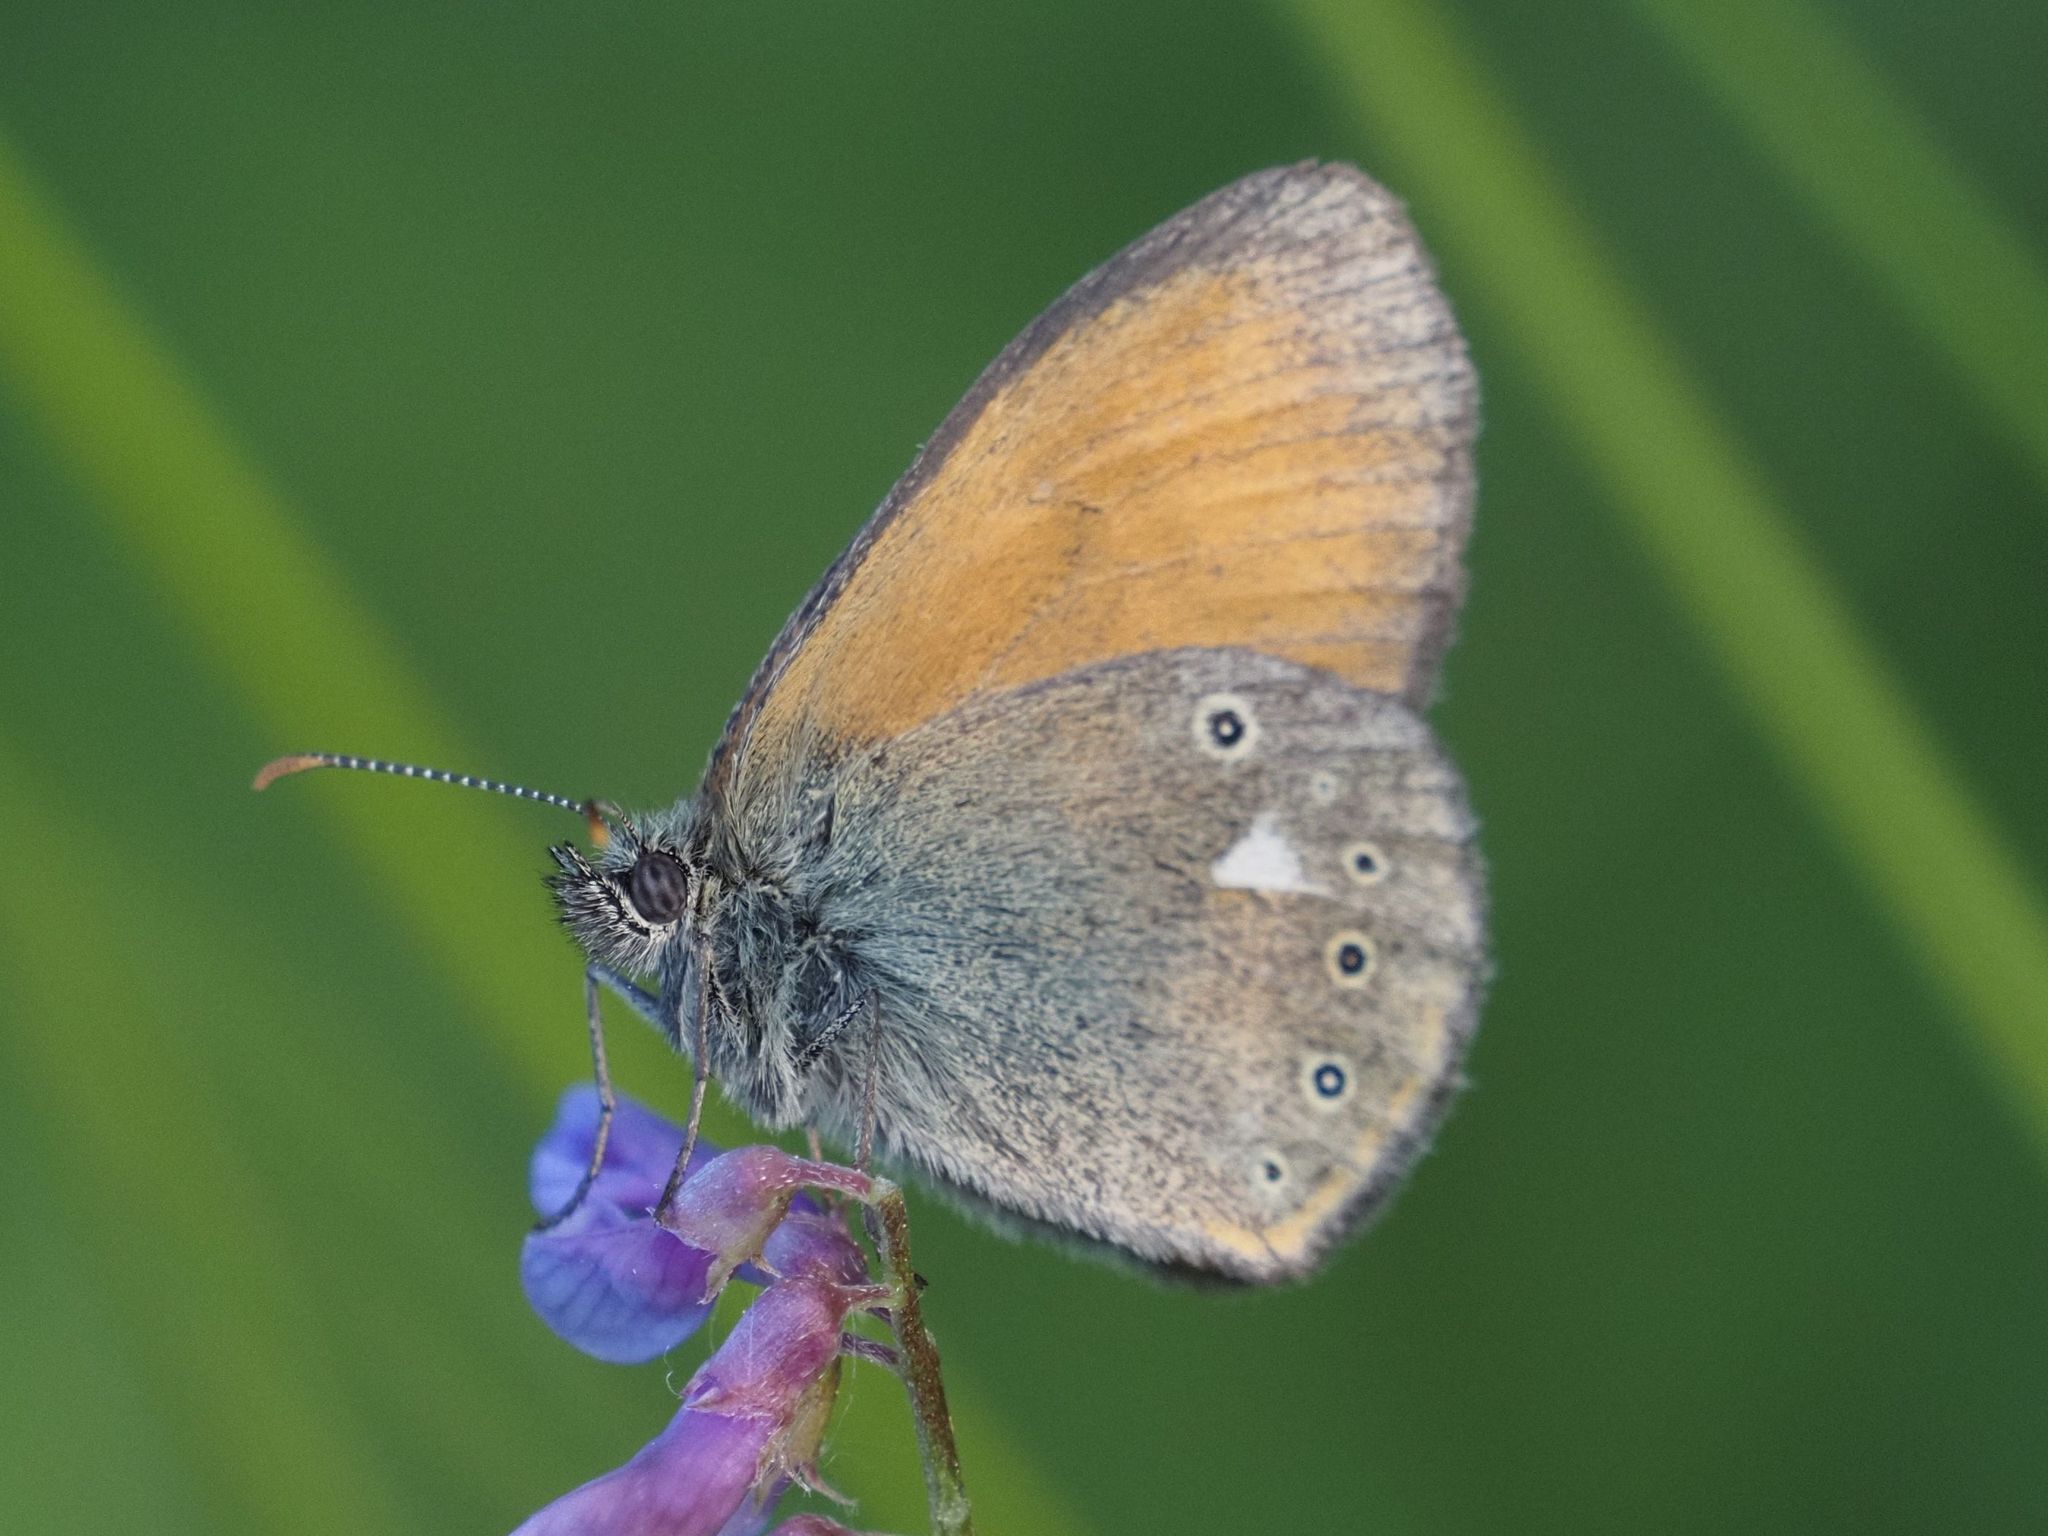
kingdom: Animalia
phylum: Arthropoda
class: Insecta
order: Lepidoptera
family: Nymphalidae
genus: Coenonympha
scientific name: Coenonympha iphis
